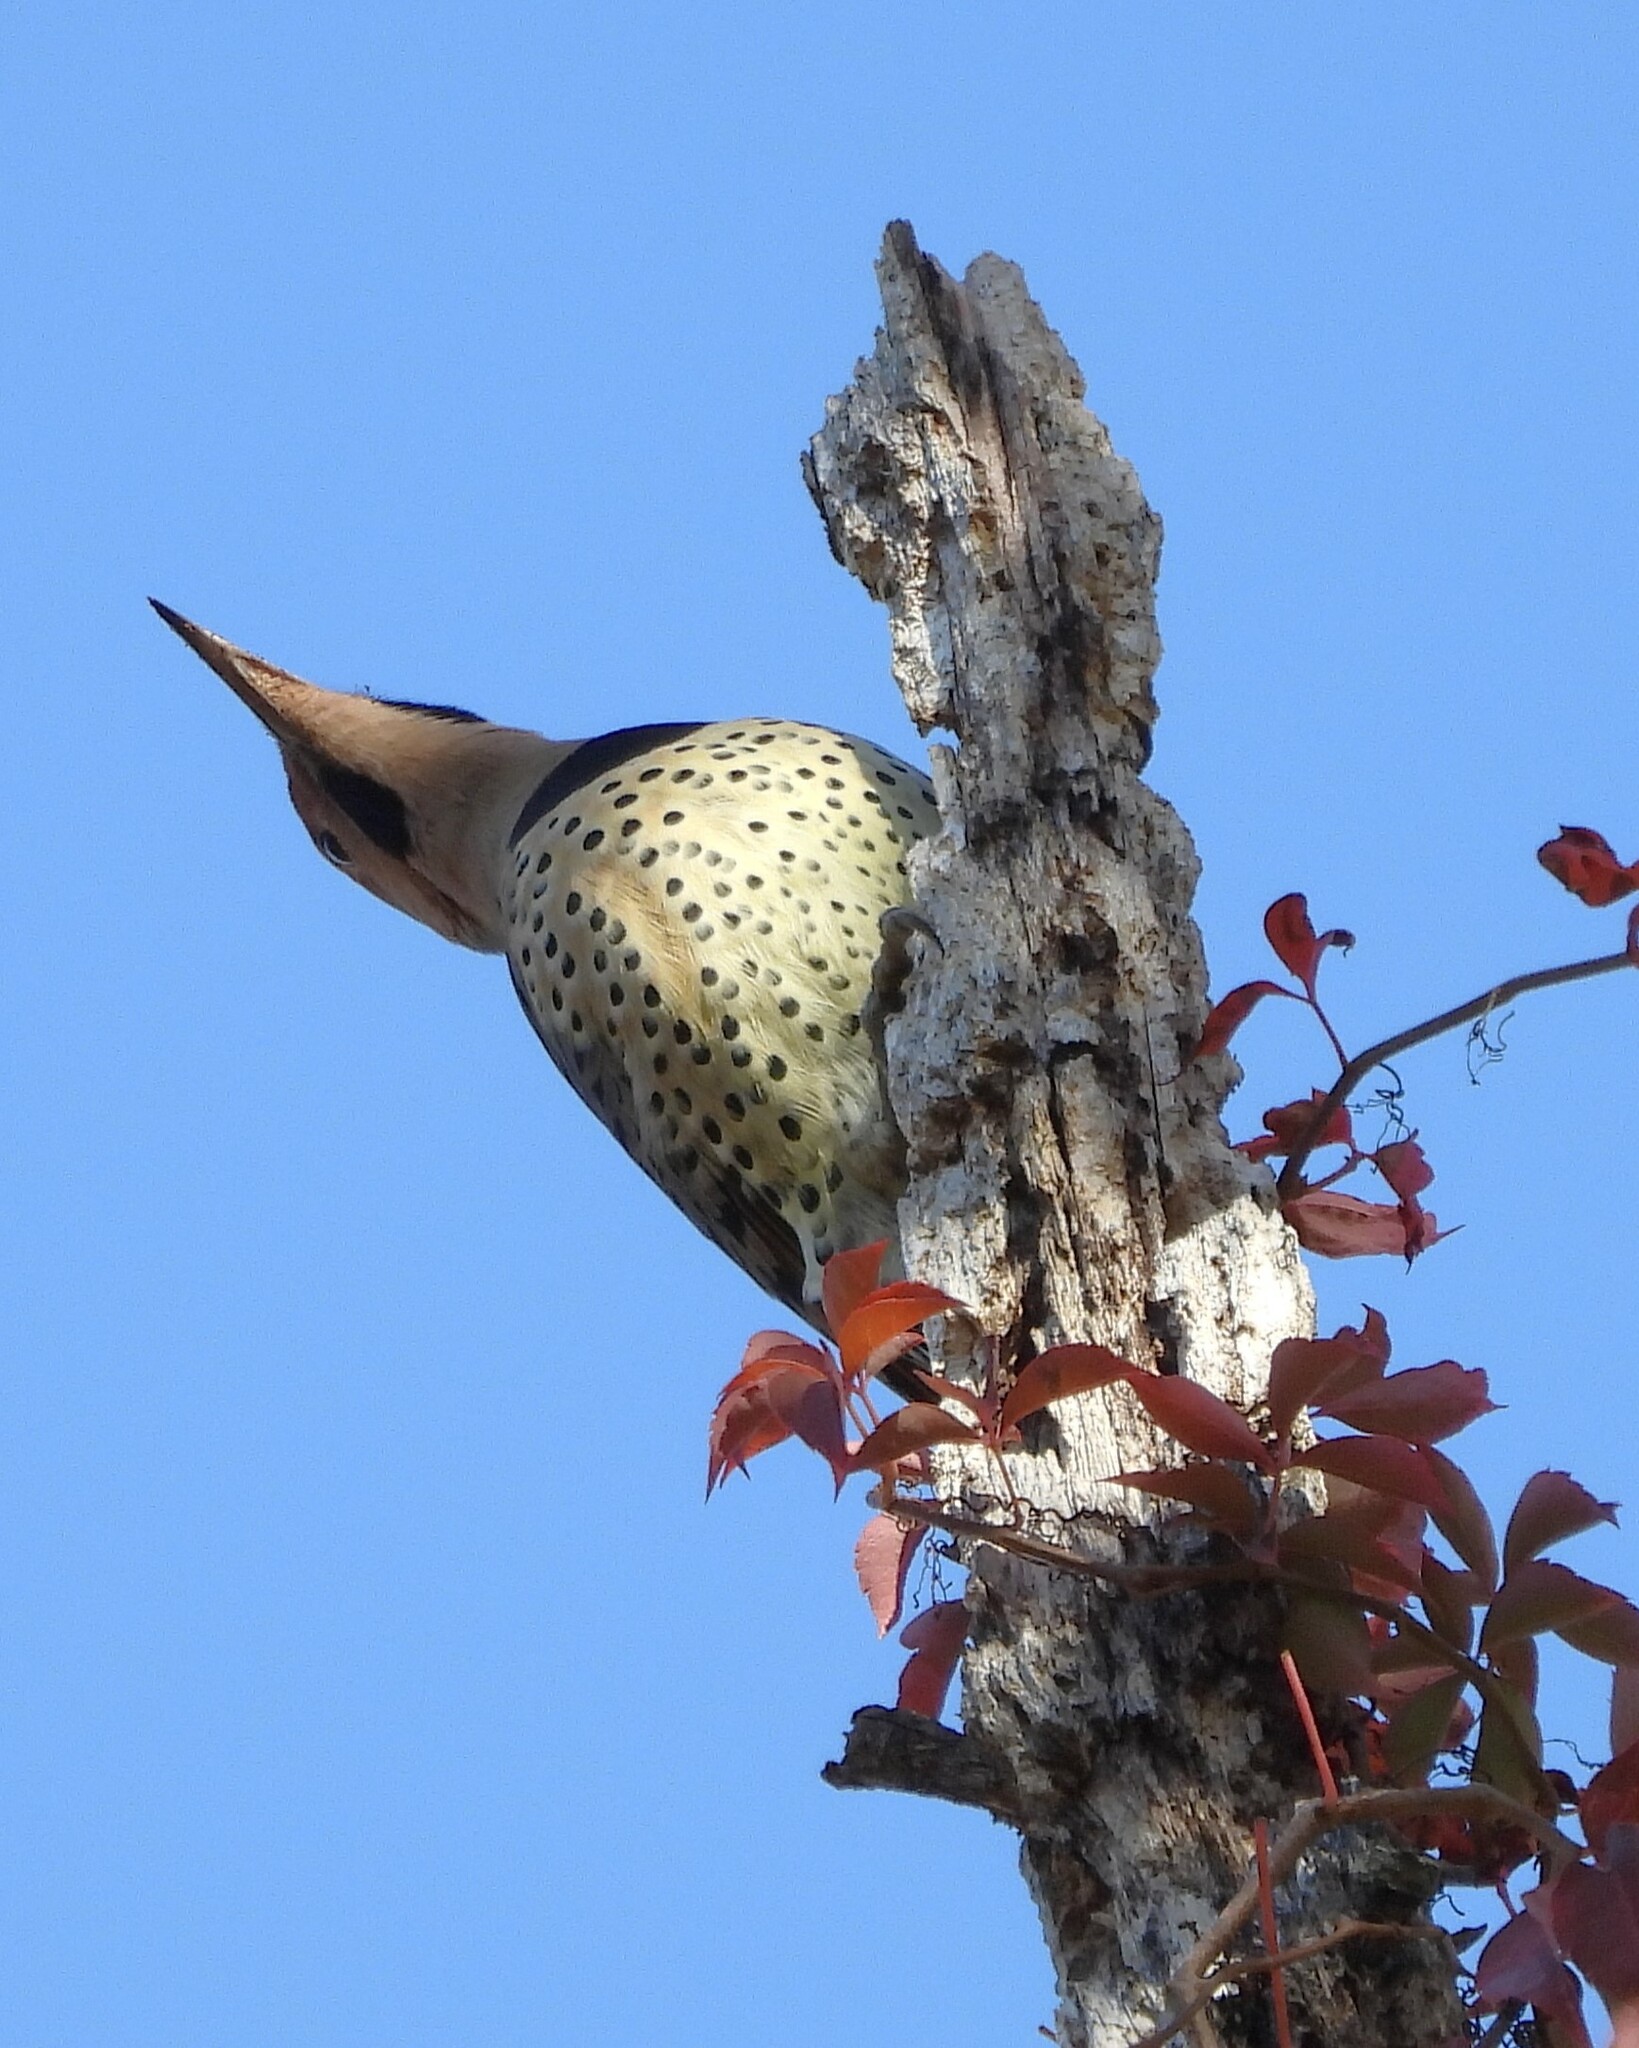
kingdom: Animalia
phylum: Chordata
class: Aves
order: Piciformes
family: Picidae
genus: Colaptes
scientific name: Colaptes auratus
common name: Northern flicker
